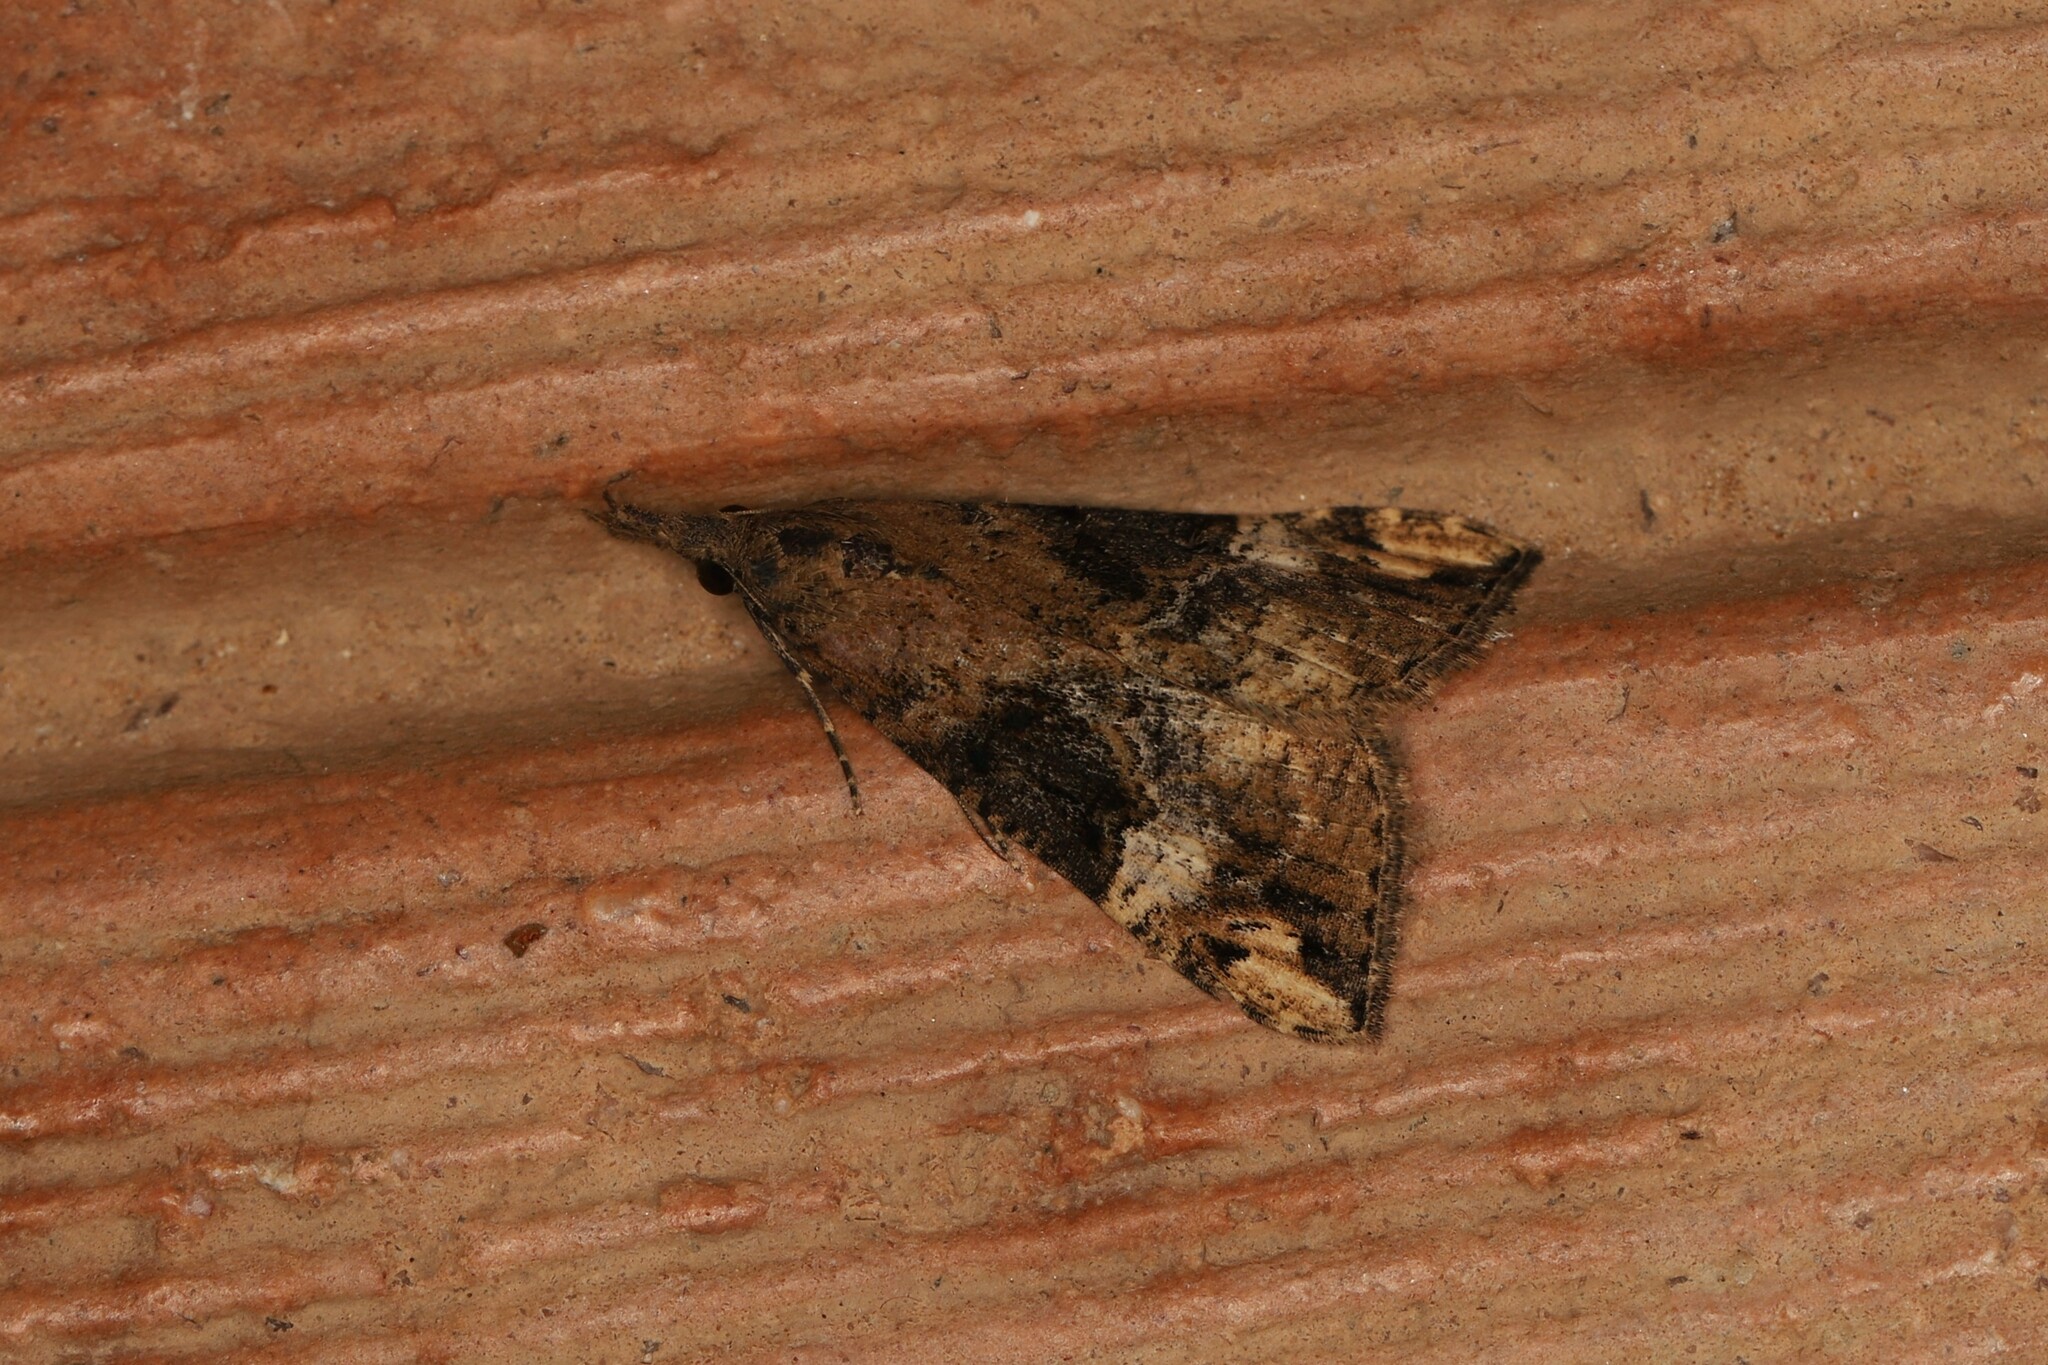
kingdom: Animalia
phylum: Arthropoda
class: Insecta
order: Lepidoptera
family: Erebidae
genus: Hypena
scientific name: Hypena obsitalis
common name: Bloxworth snout
